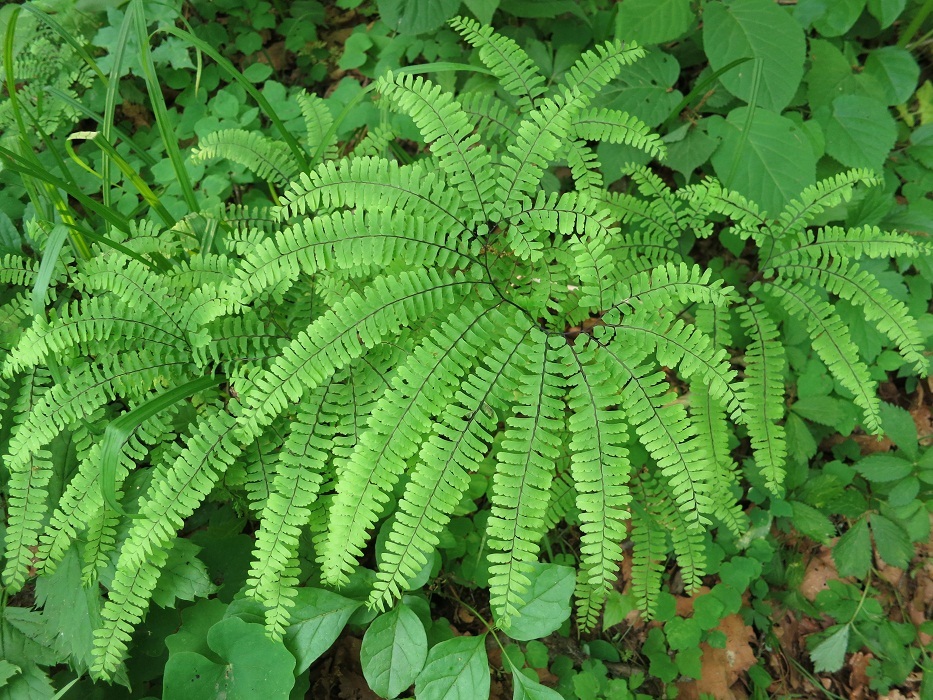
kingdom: Plantae
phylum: Tracheophyta
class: Polypodiopsida
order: Polypodiales
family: Pteridaceae
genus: Adiantum
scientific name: Adiantum pedatum
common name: Five-finger fern
